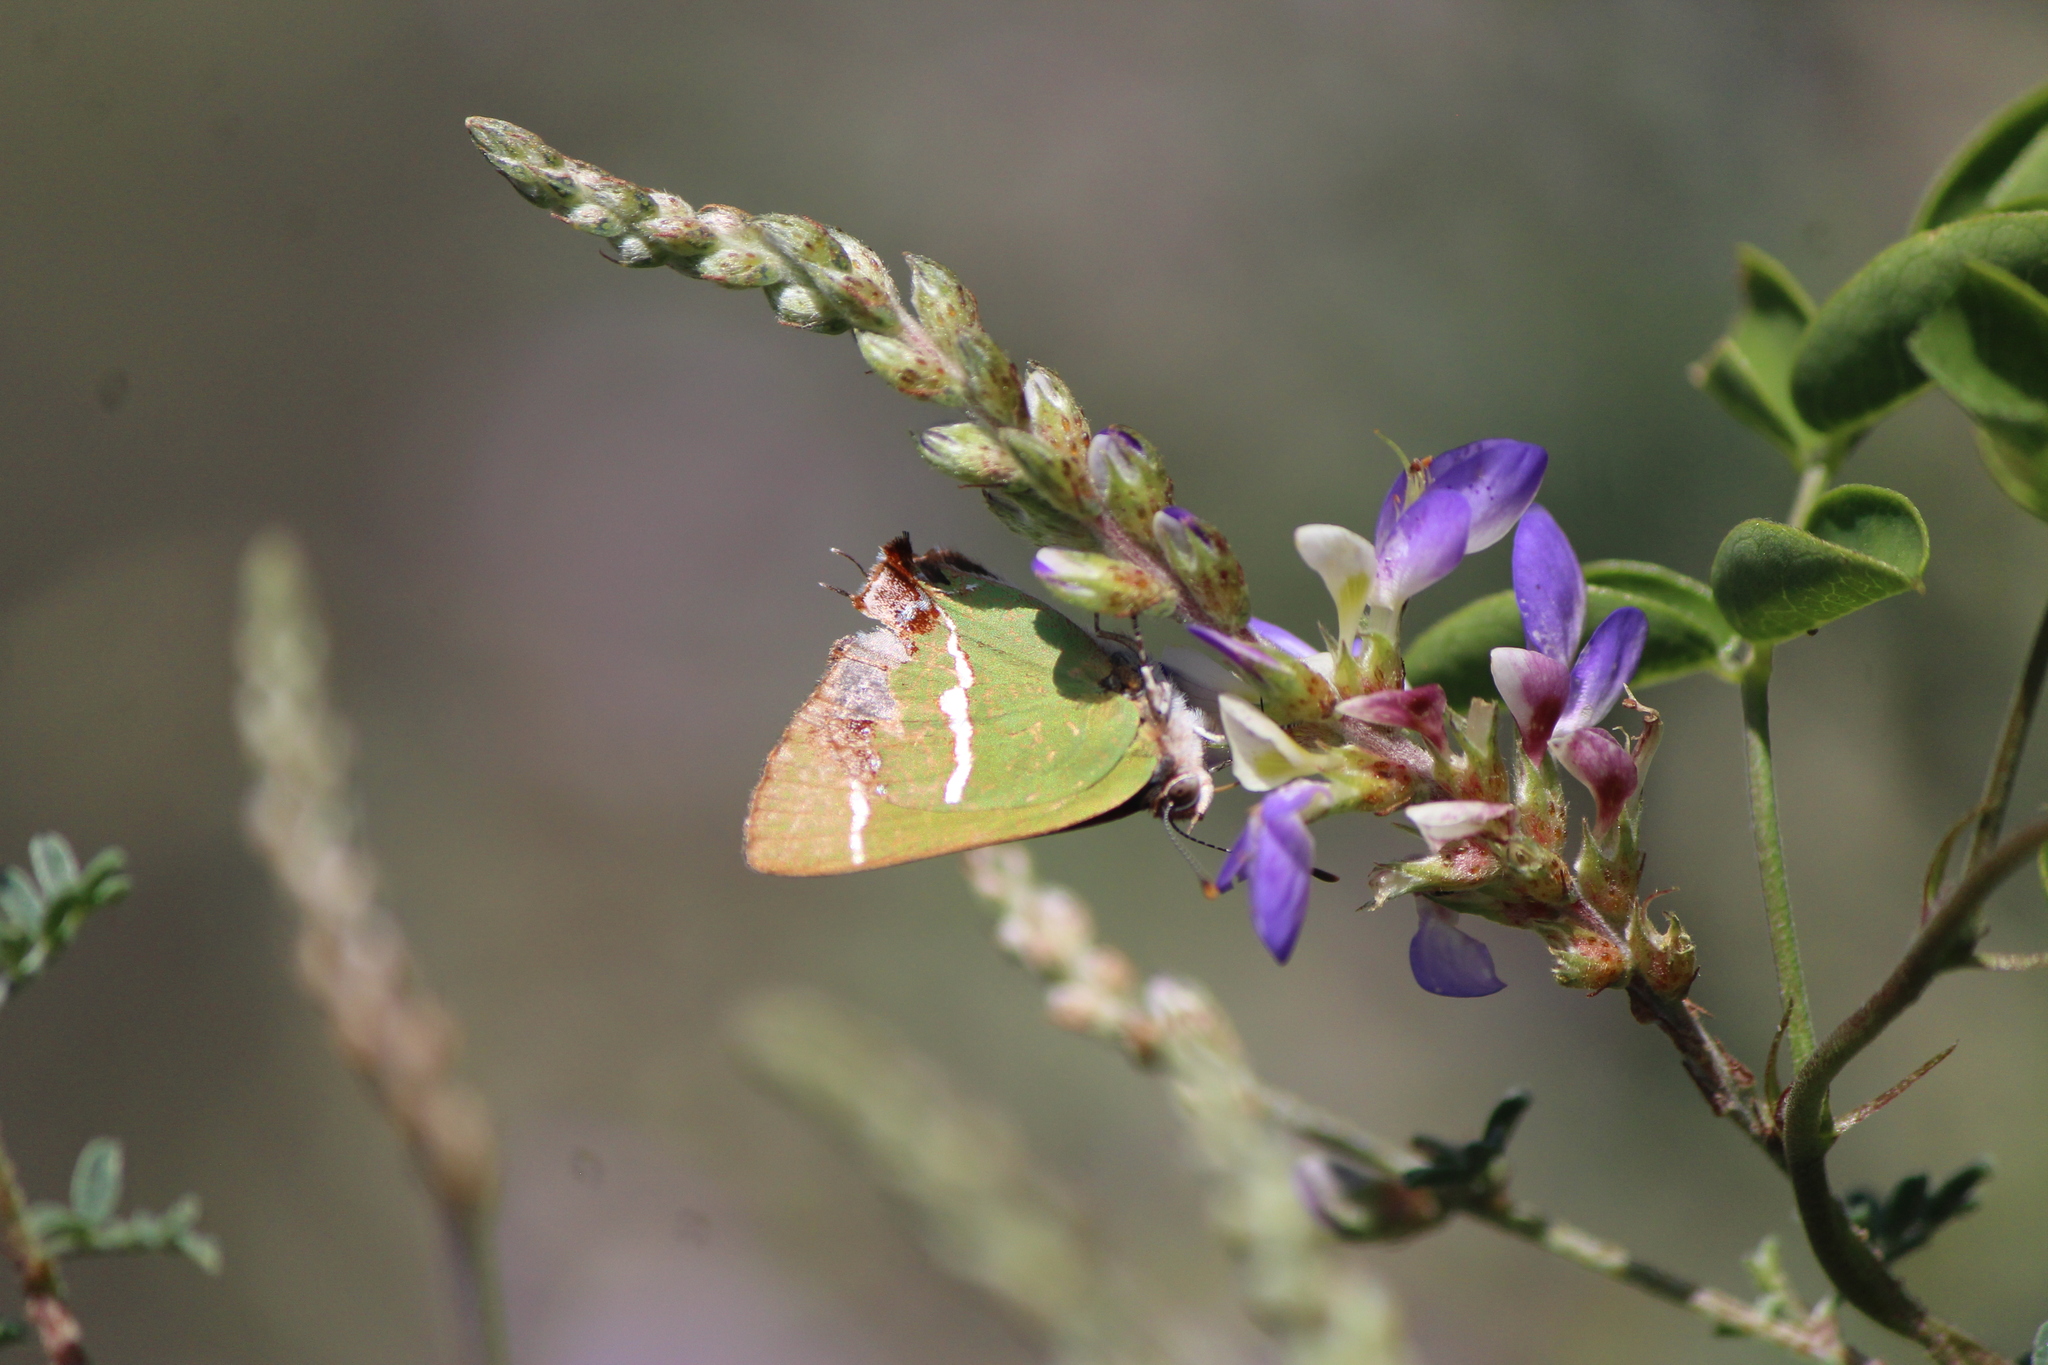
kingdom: Animalia
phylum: Arthropoda
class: Insecta
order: Lepidoptera
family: Lycaenidae
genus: Chlorostrymon
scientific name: Chlorostrymon simaethis
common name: Silver-banded hairstreak
